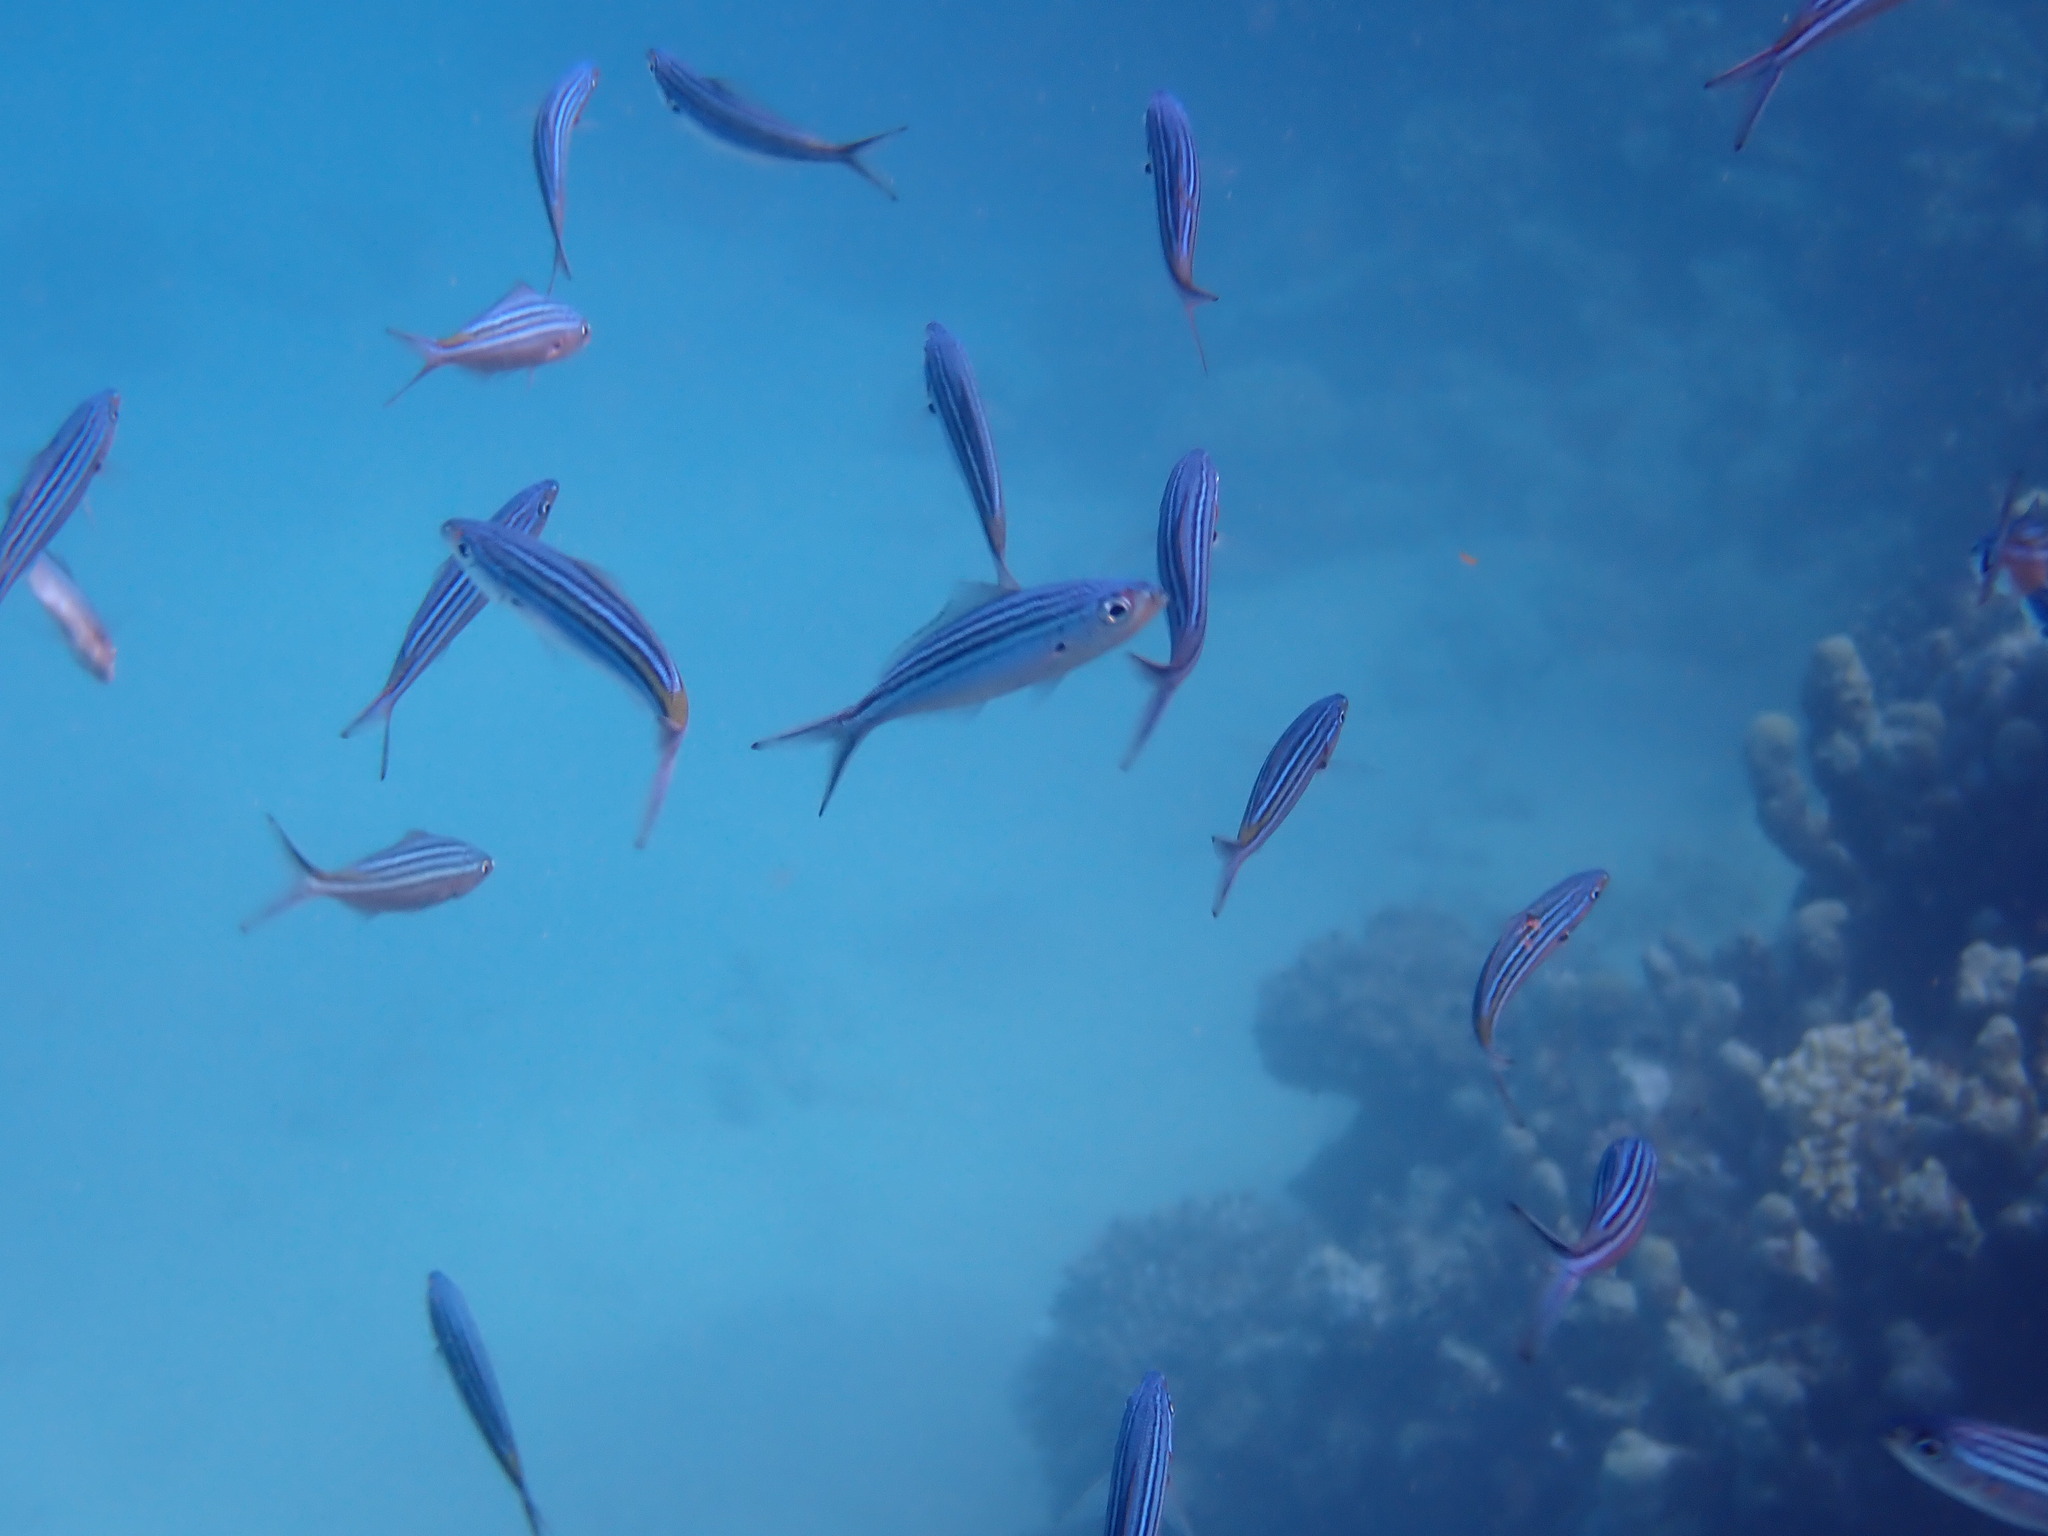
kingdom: Animalia
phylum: Chordata
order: Perciformes
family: Caesionidae
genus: Caesio
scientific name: Caesio striata
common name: Striated fusilier
